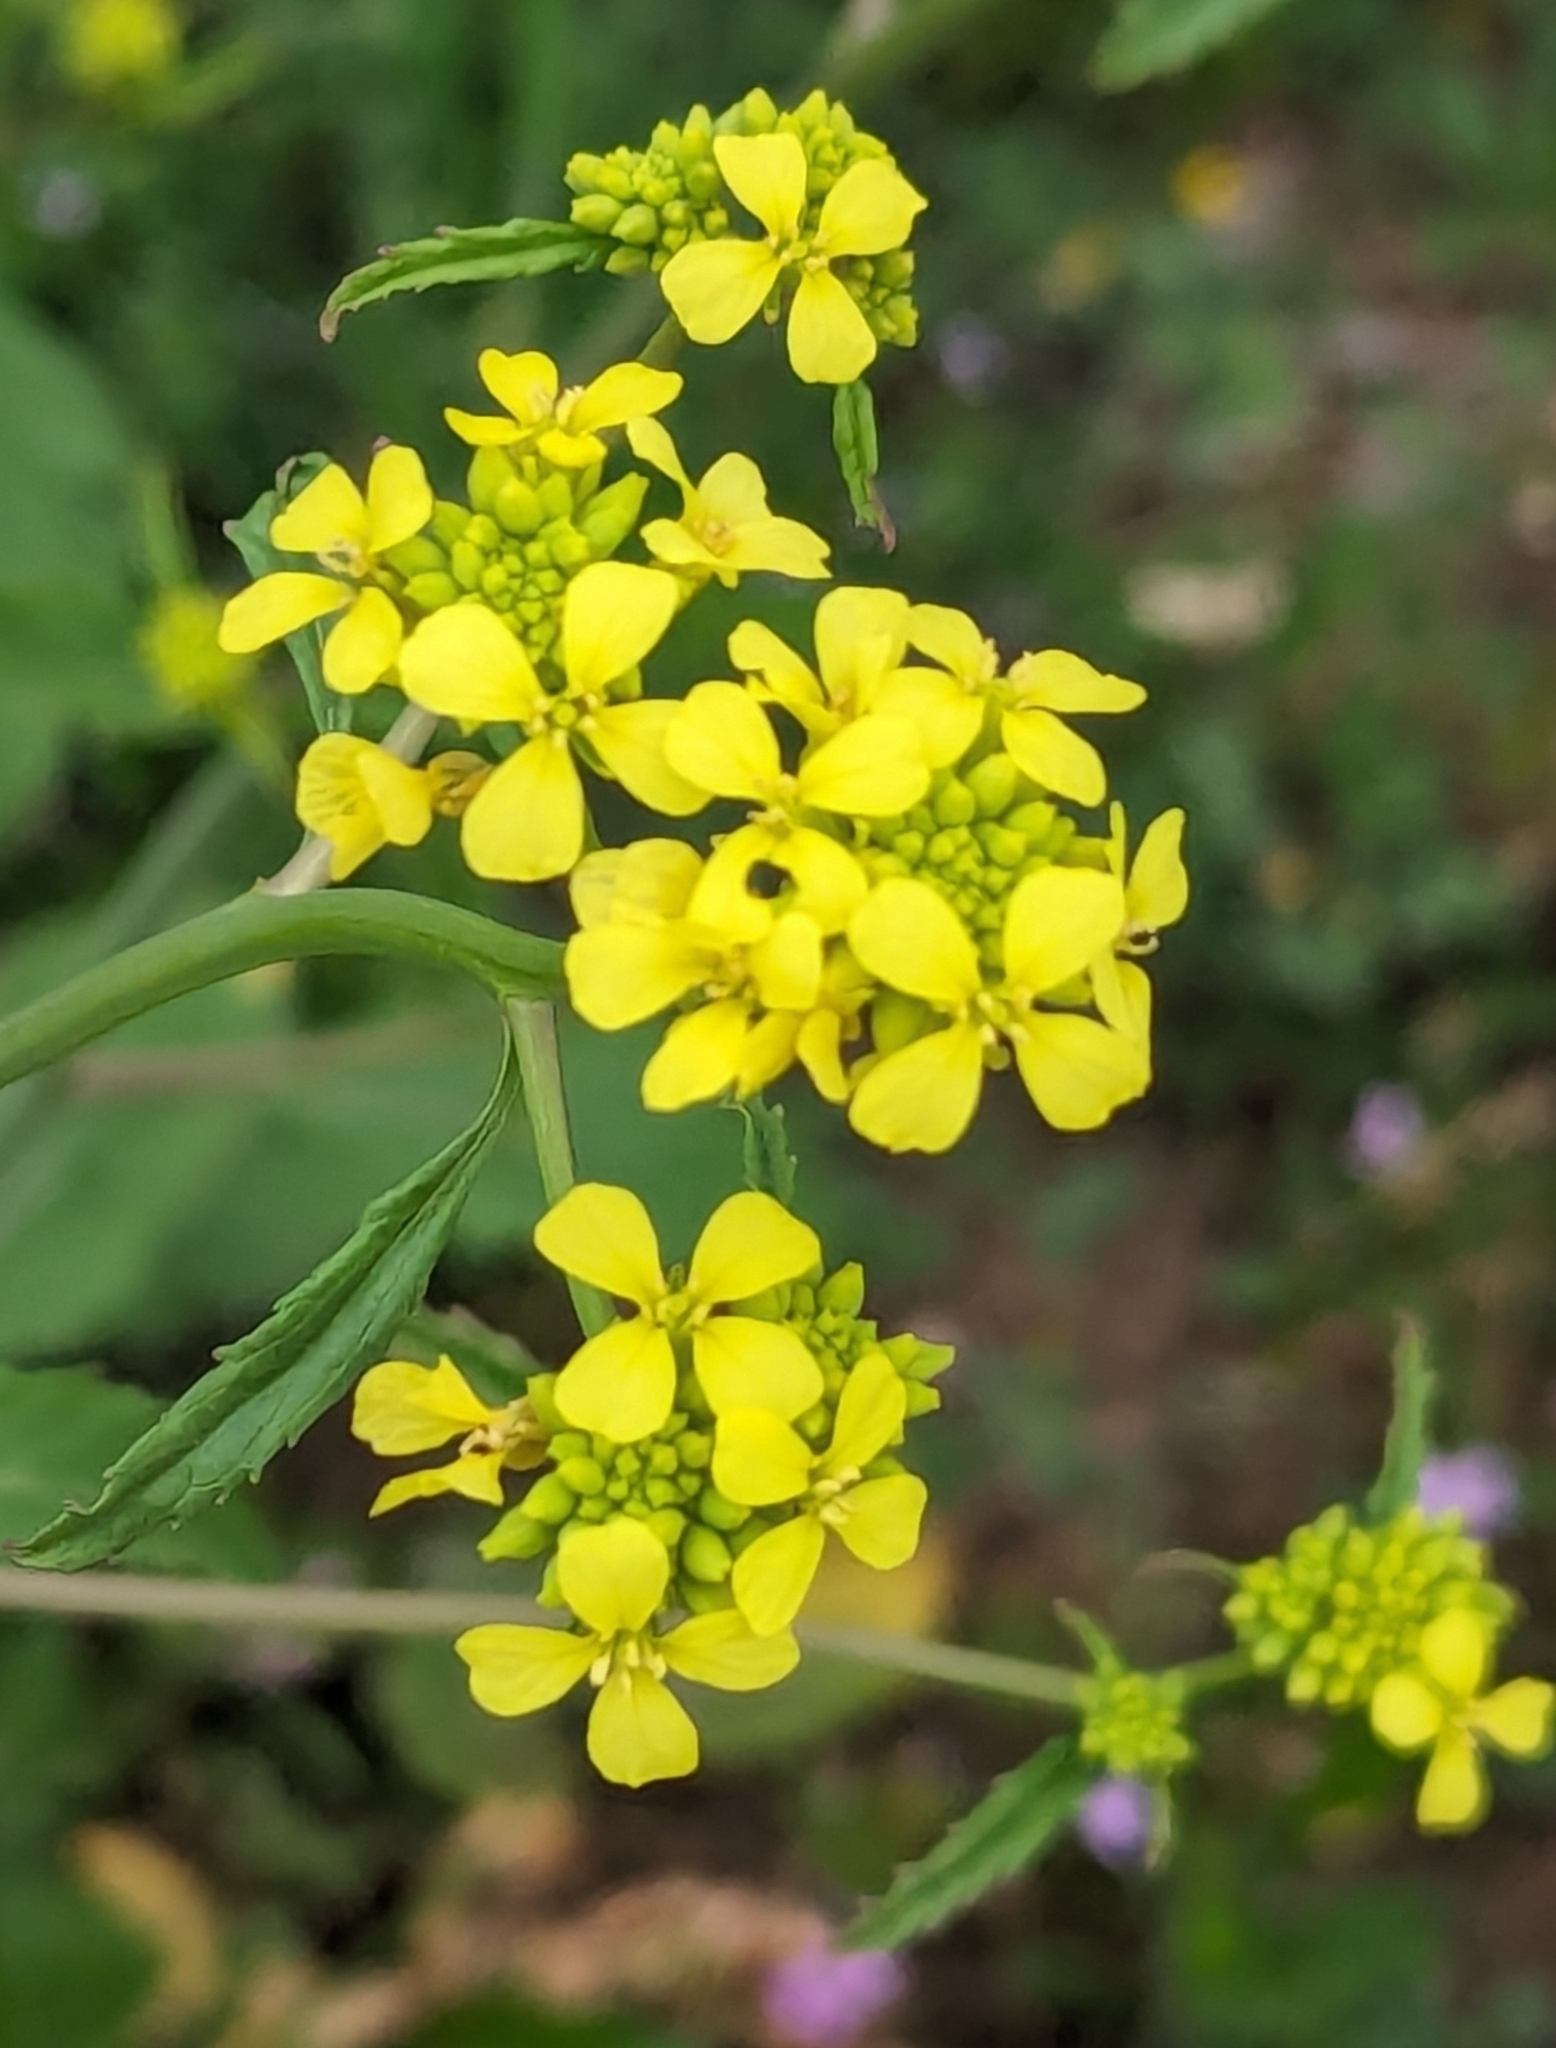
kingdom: Plantae
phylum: Tracheophyta
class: Magnoliopsida
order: Brassicales
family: Brassicaceae
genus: Rapistrum
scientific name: Rapistrum rugosum
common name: Annual bastardcabbage
